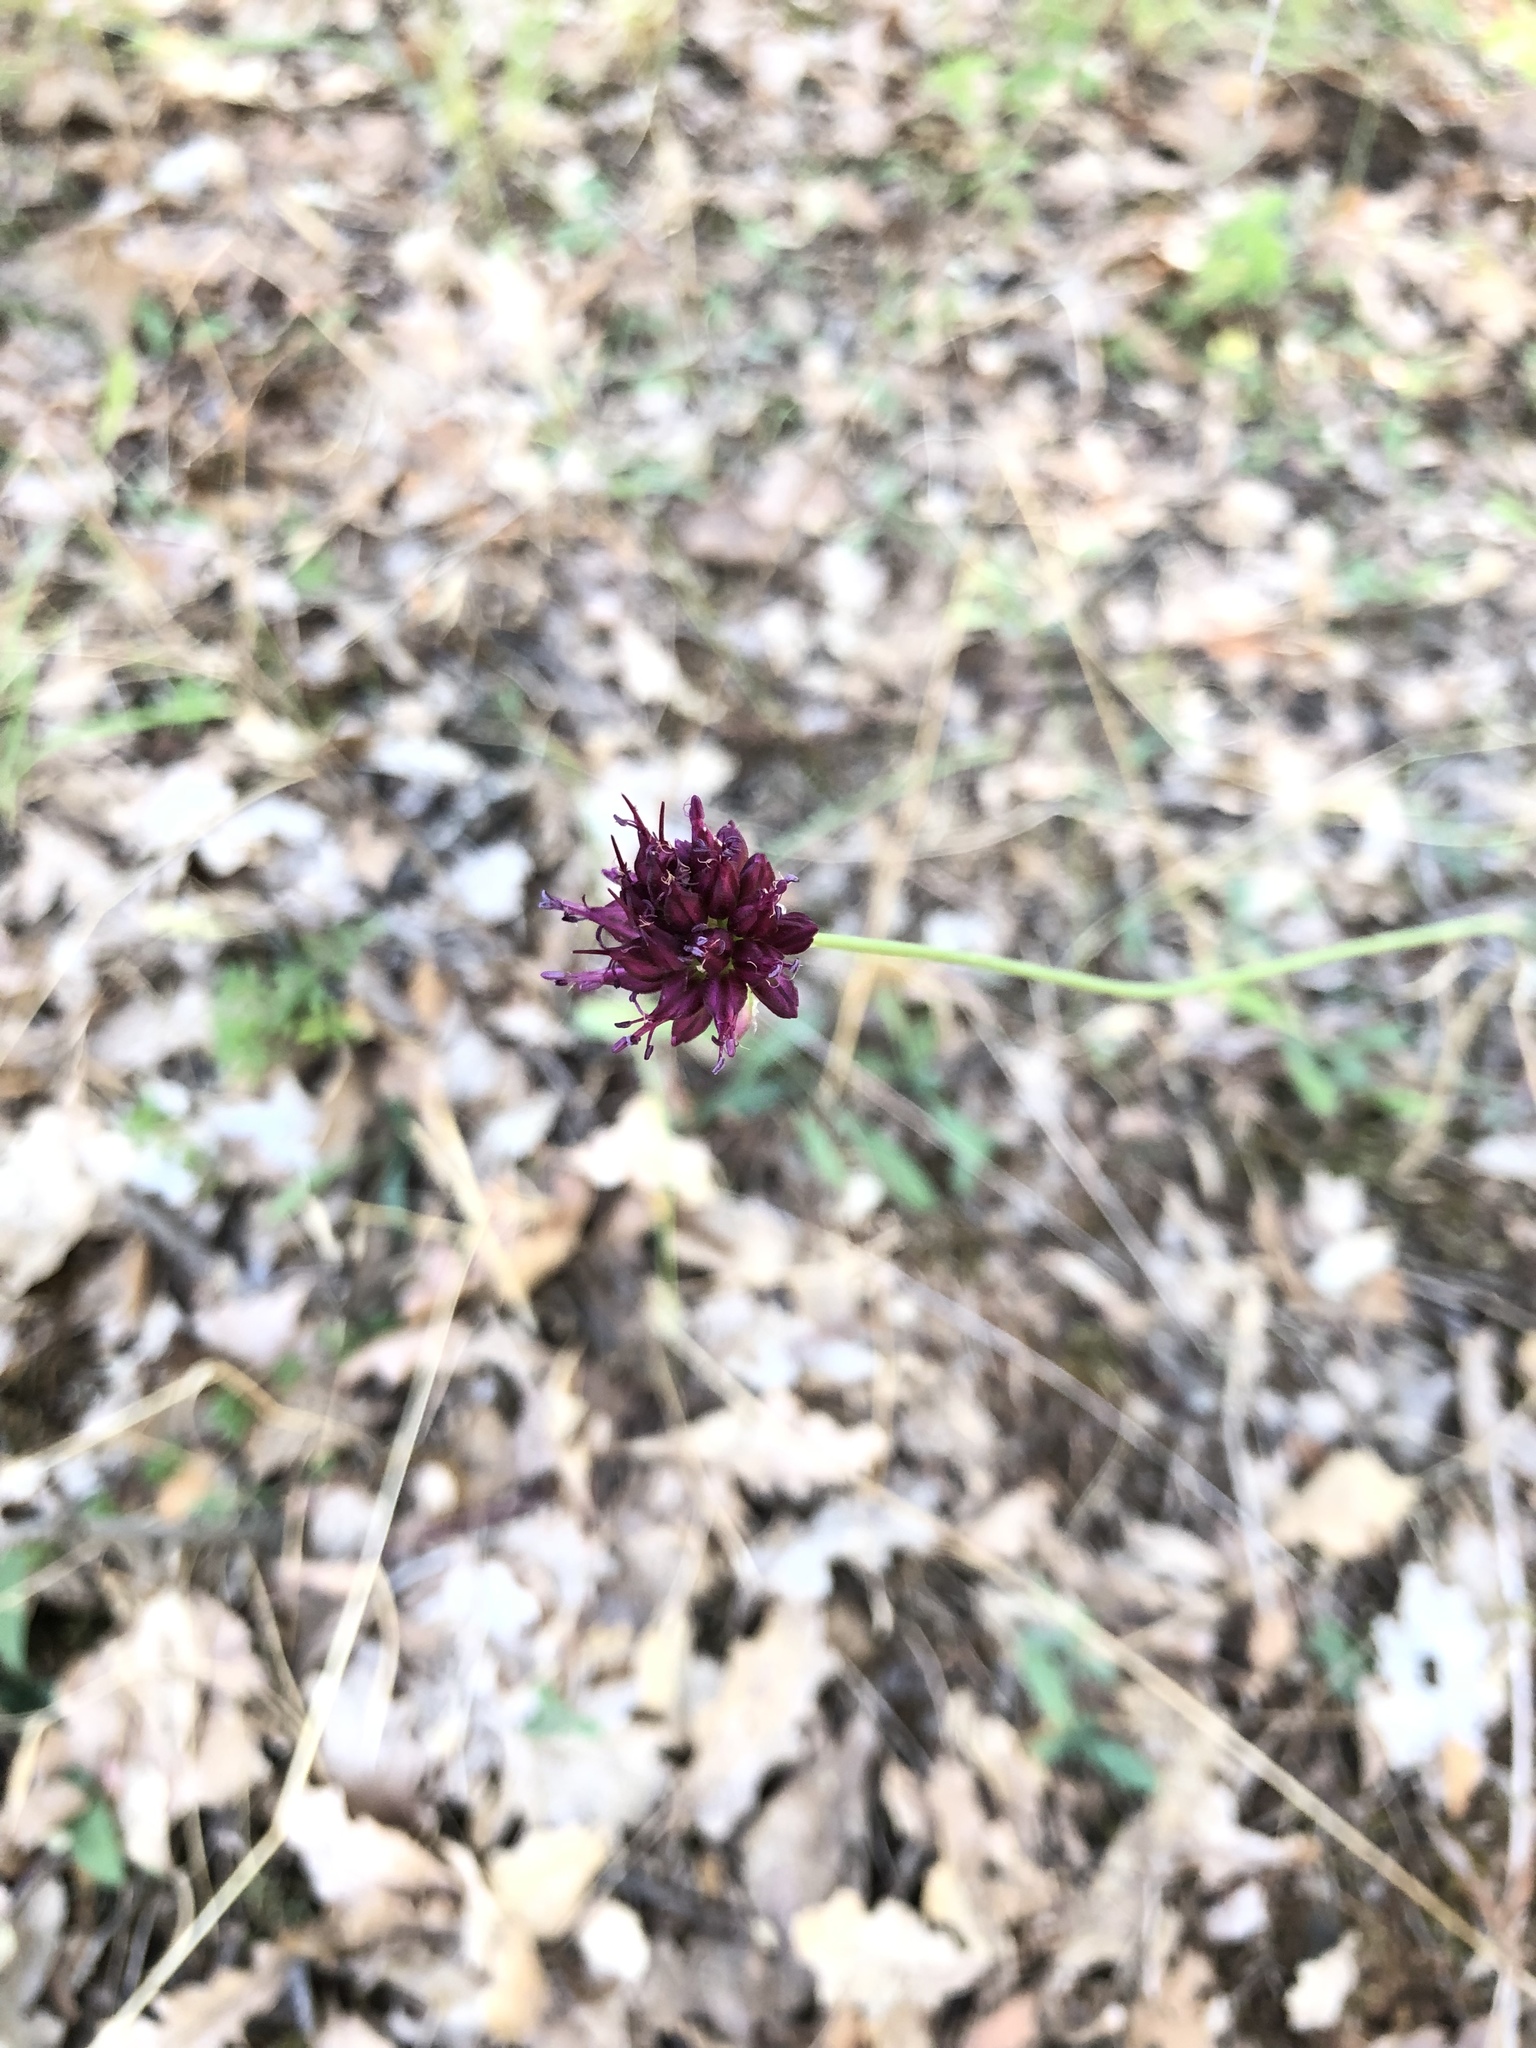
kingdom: Plantae
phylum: Tracheophyta
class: Liliopsida
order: Asparagales
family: Amaryllidaceae
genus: Allium
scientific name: Allium sphaerocephalon
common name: Round-headed leek
